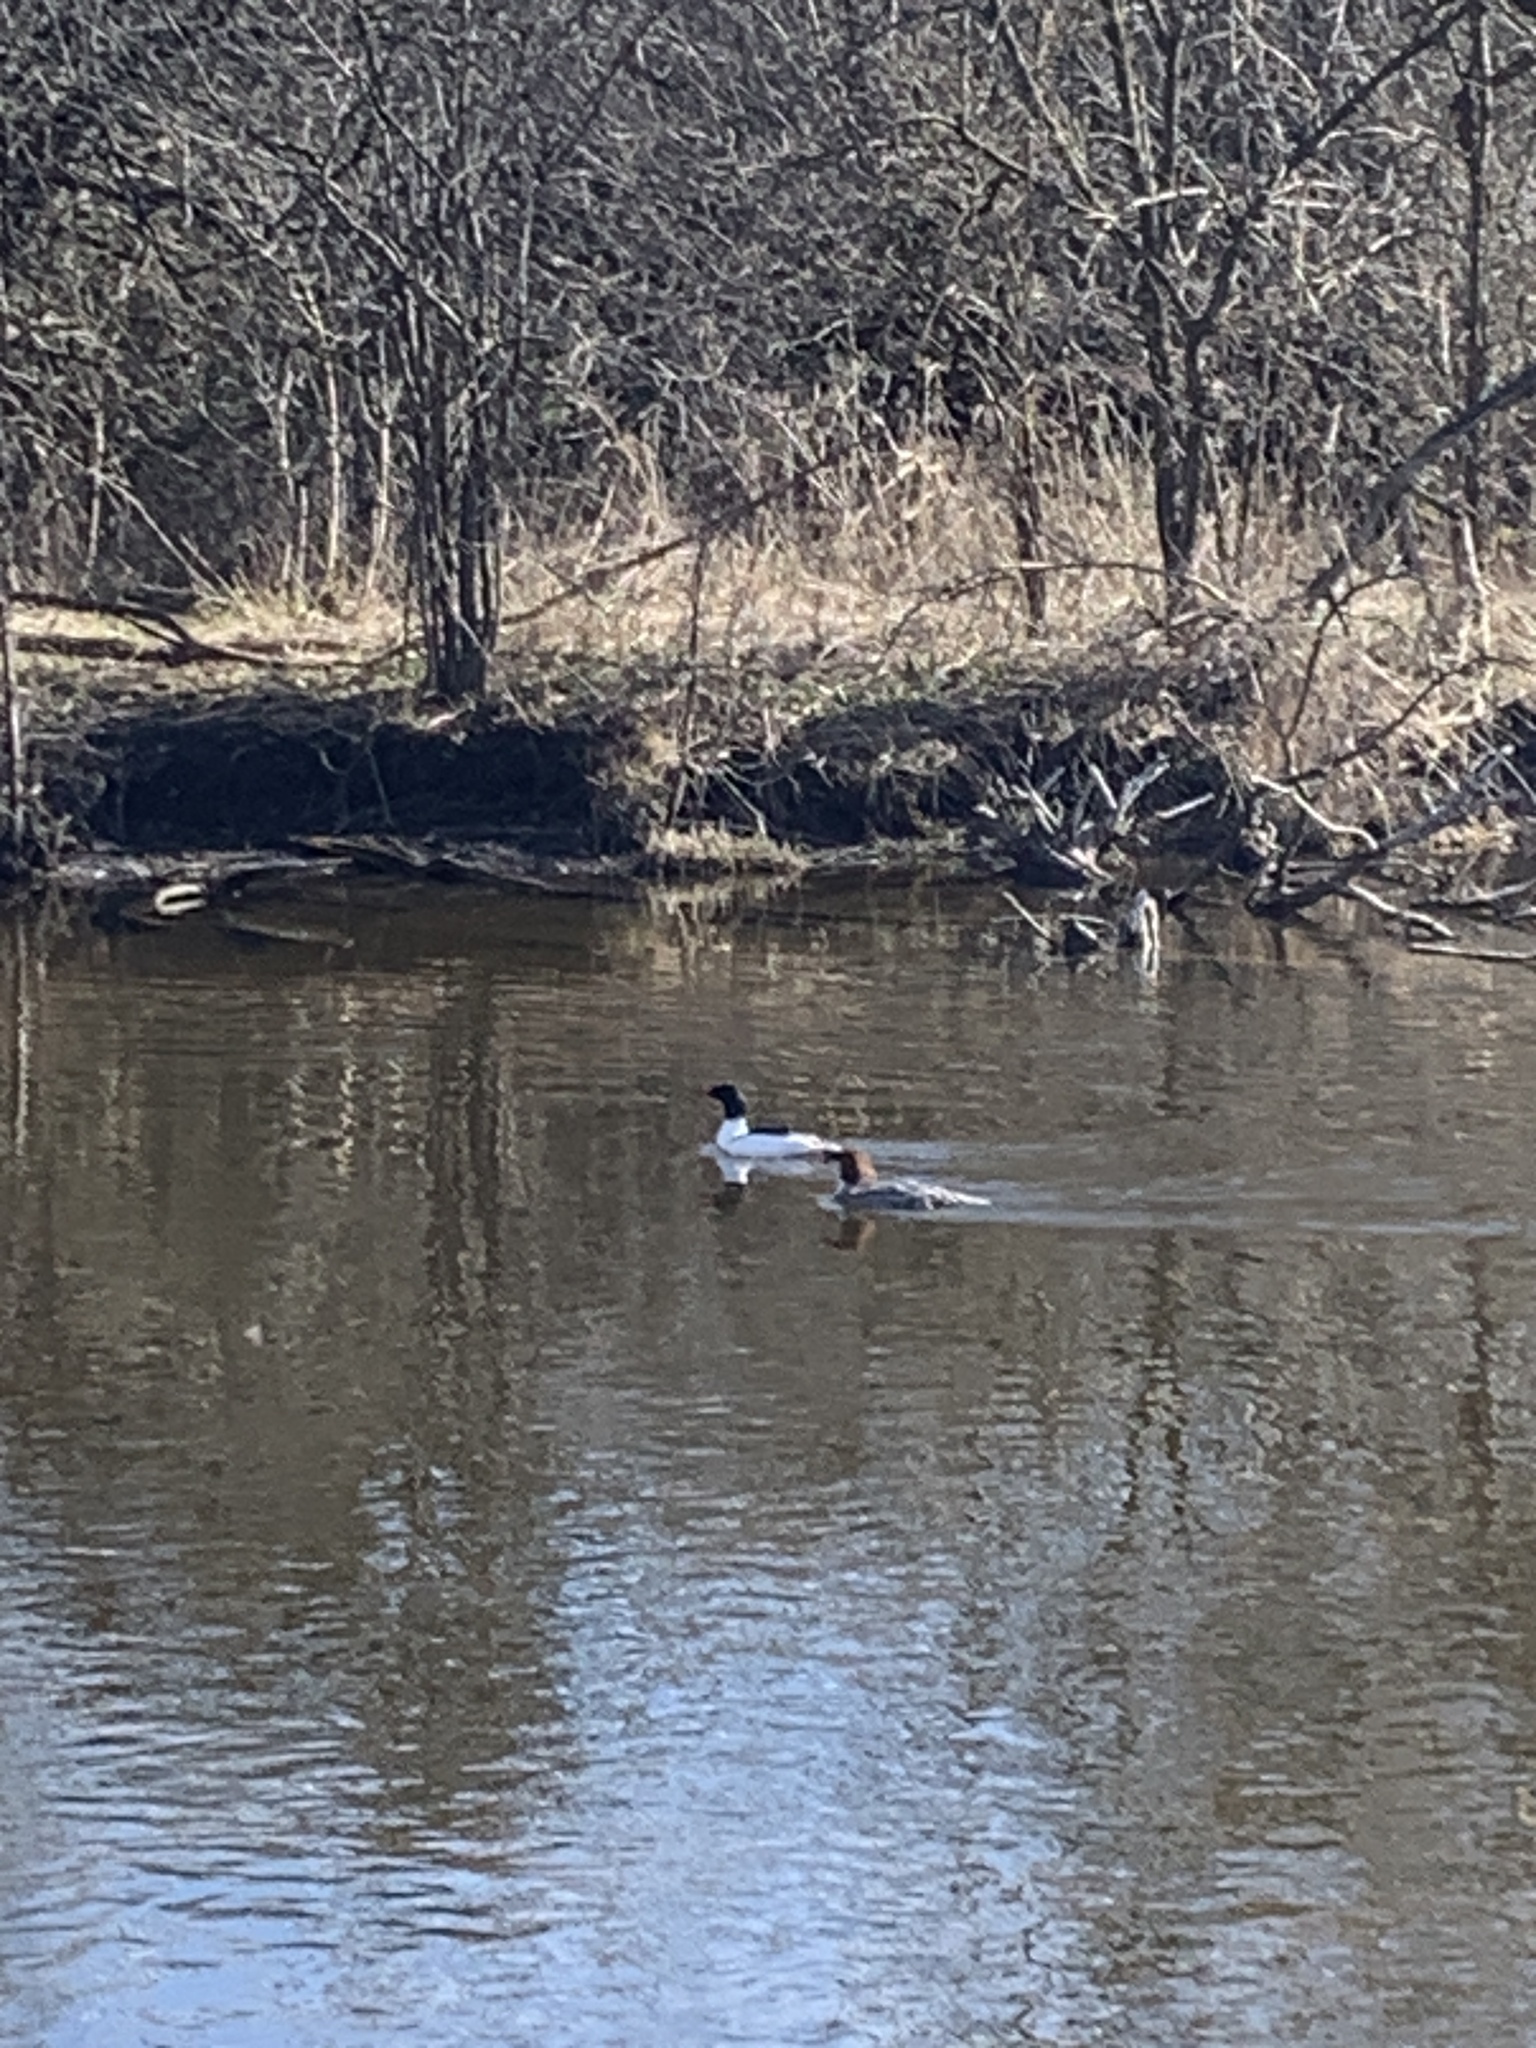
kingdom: Animalia
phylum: Chordata
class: Aves
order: Anseriformes
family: Anatidae
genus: Mergus
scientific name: Mergus merganser
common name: Common merganser
